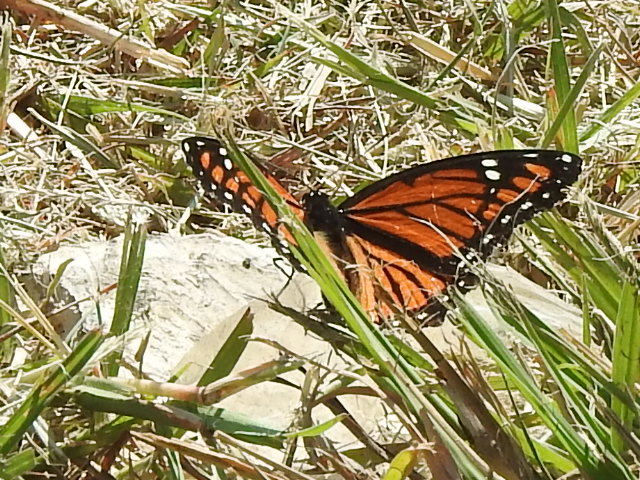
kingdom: Animalia
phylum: Arthropoda
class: Insecta
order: Lepidoptera
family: Nymphalidae
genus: Danaus
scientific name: Danaus plexippus
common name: Monarch
